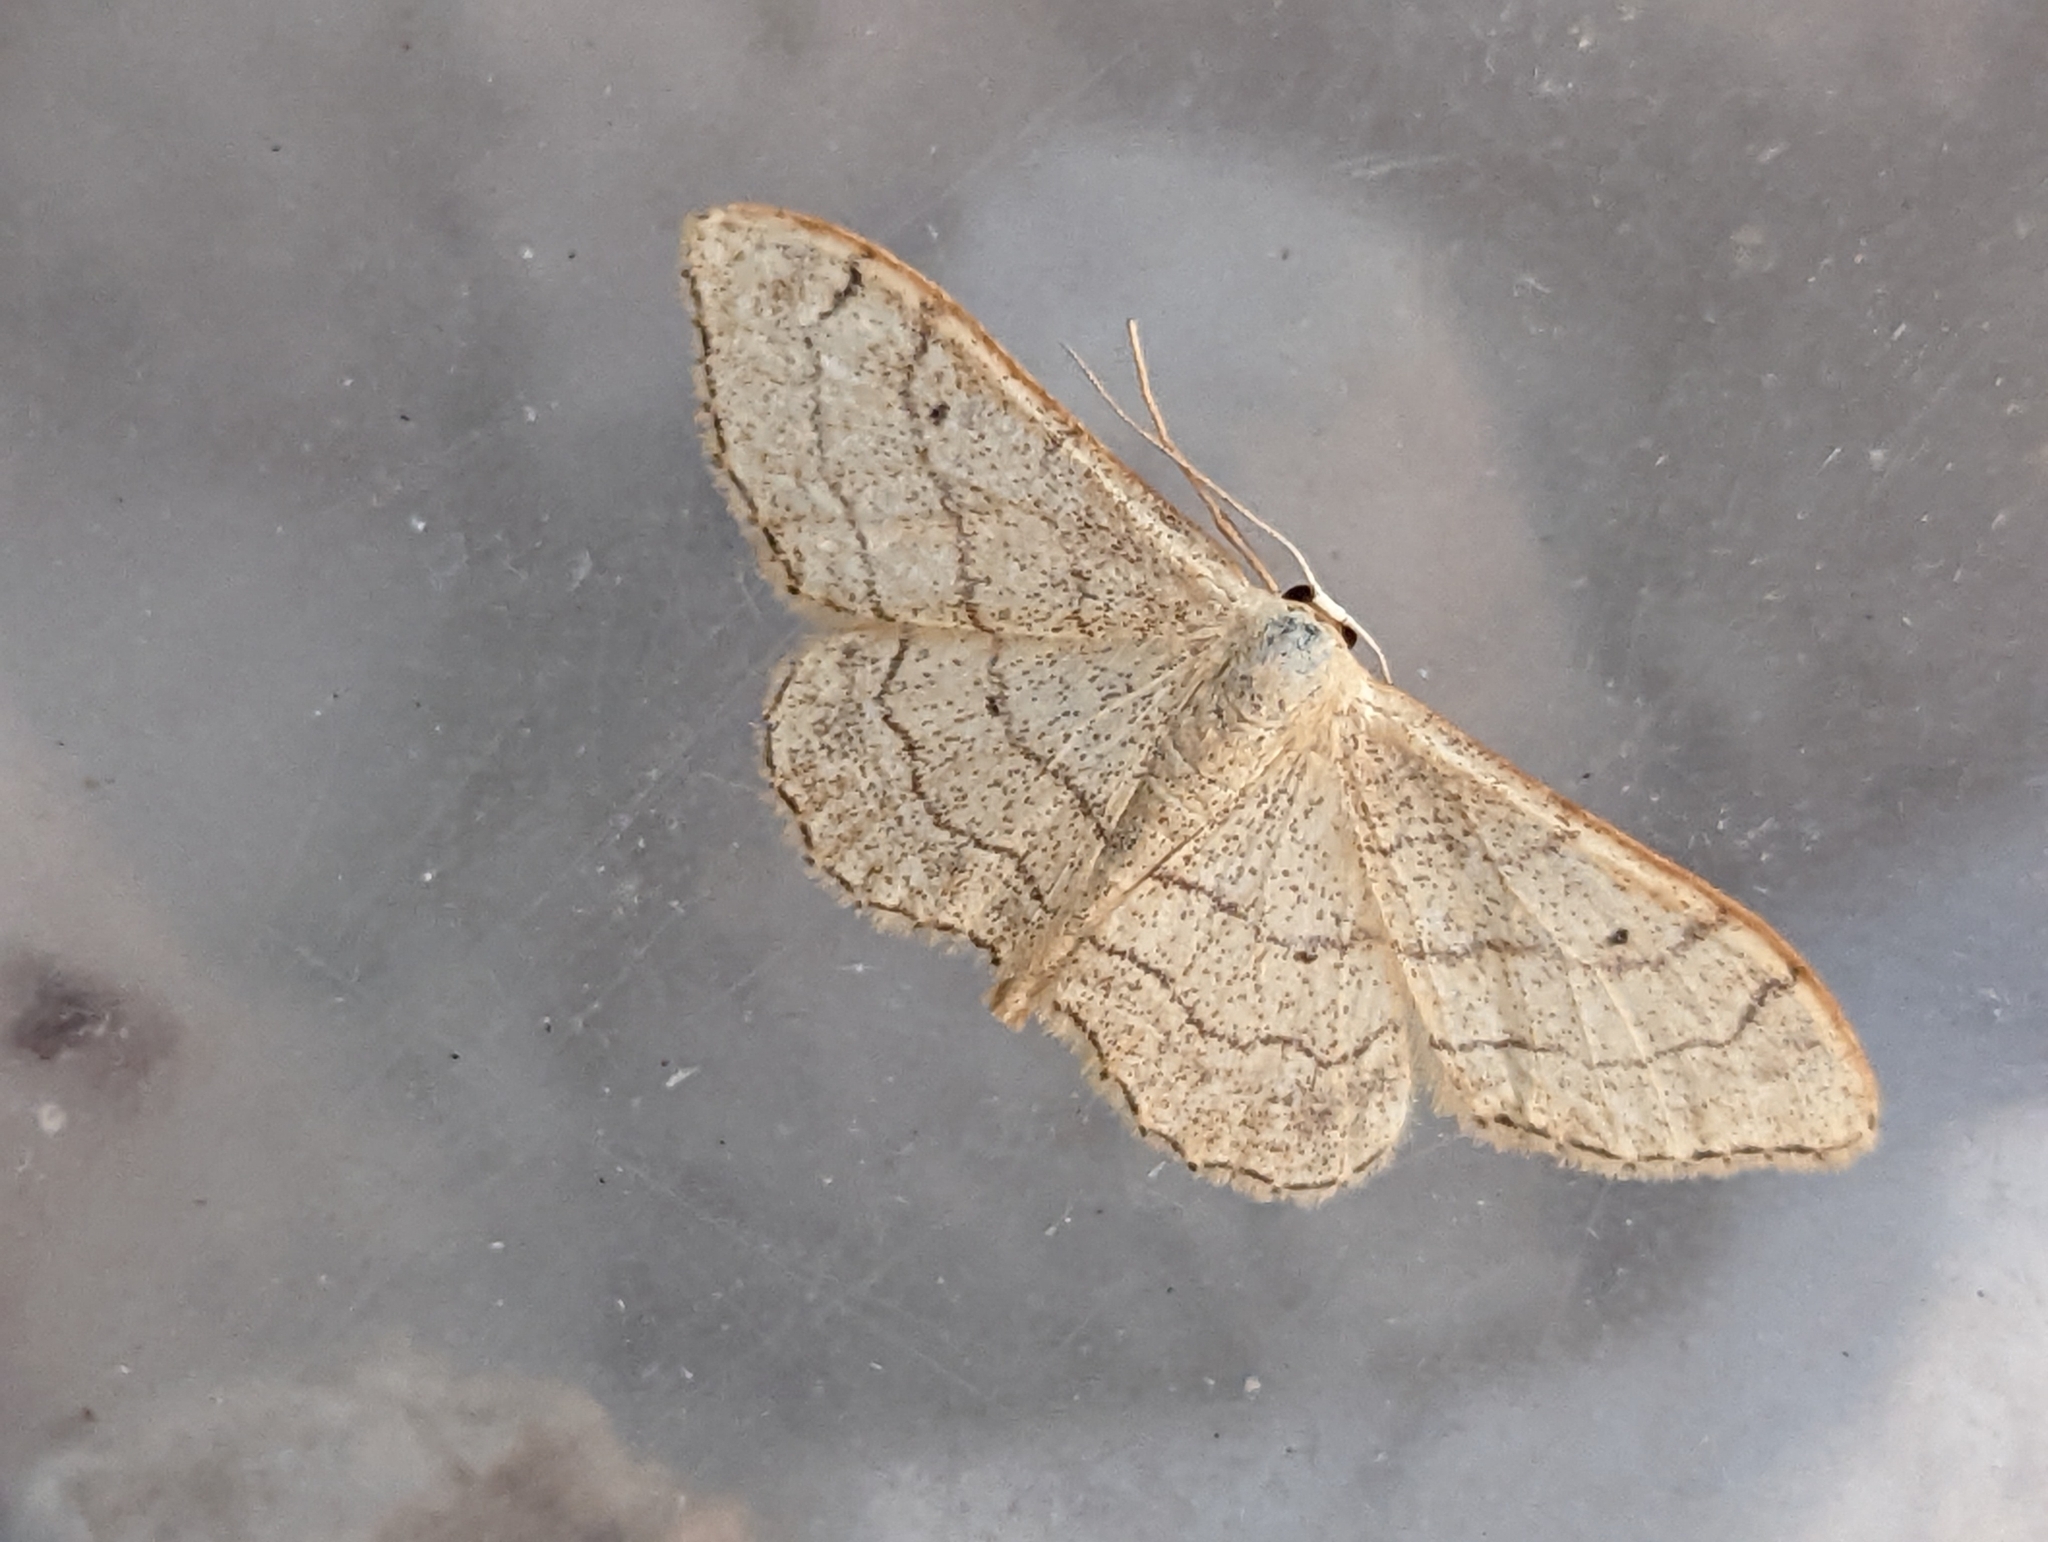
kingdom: Animalia
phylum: Arthropoda
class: Insecta
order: Lepidoptera
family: Geometridae
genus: Idaea
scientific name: Idaea aversata
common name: Riband wave
